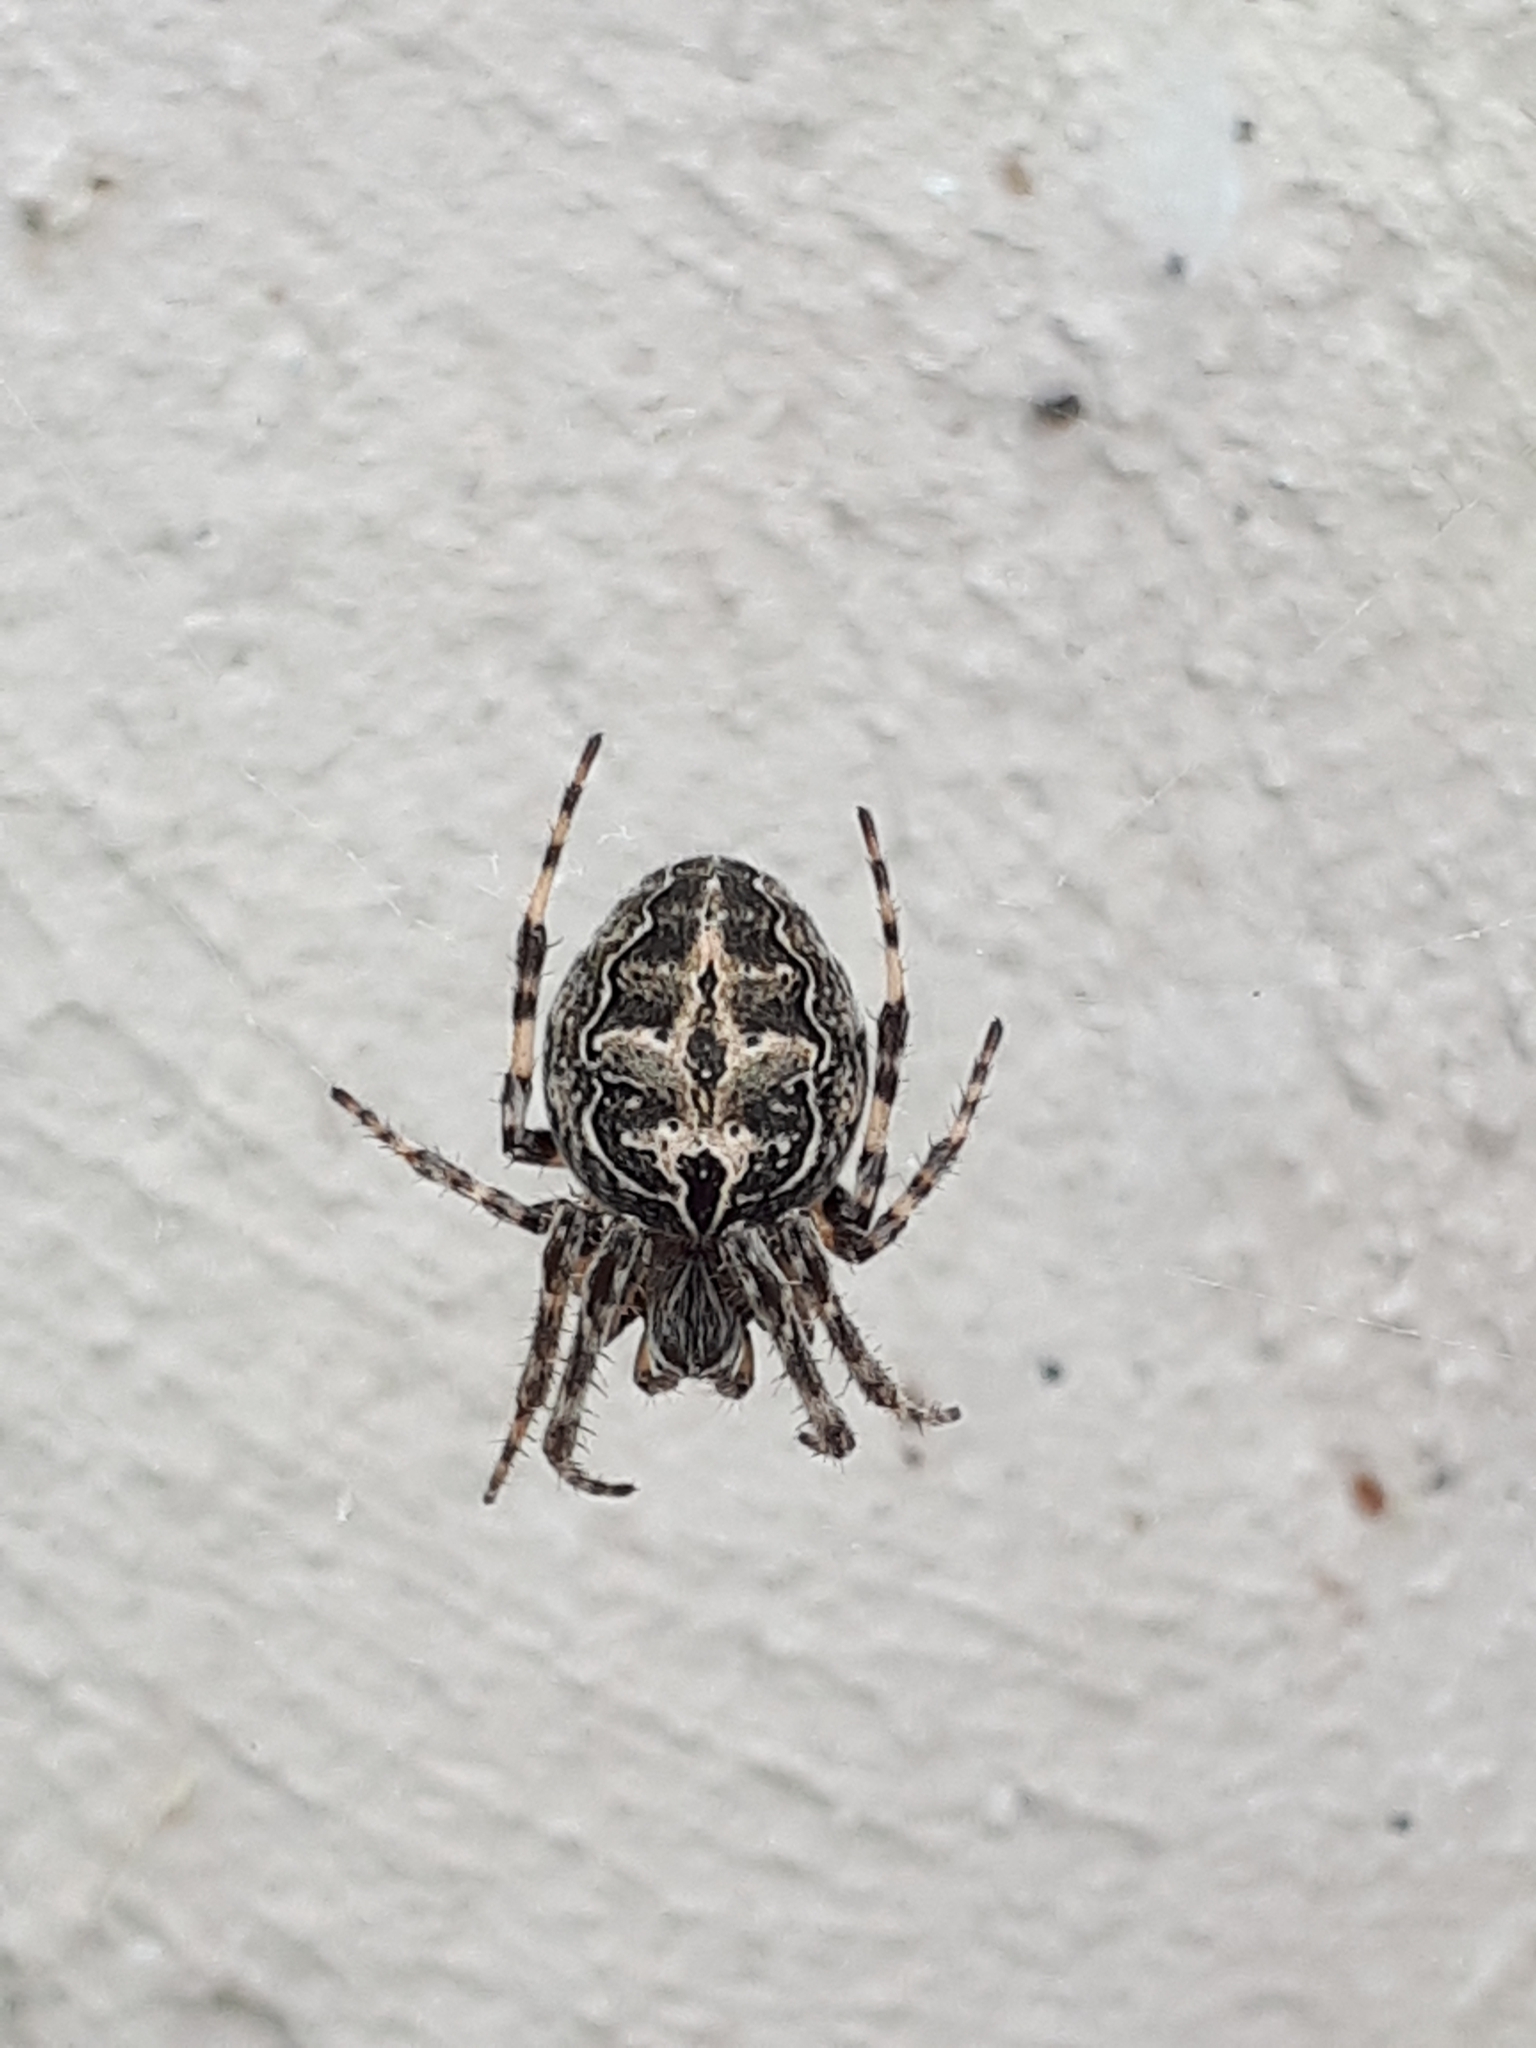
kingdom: Animalia
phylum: Arthropoda
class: Arachnida
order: Araneae
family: Araneidae
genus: Larinioides
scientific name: Larinioides sclopetarius
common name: Bridge orbweaver
